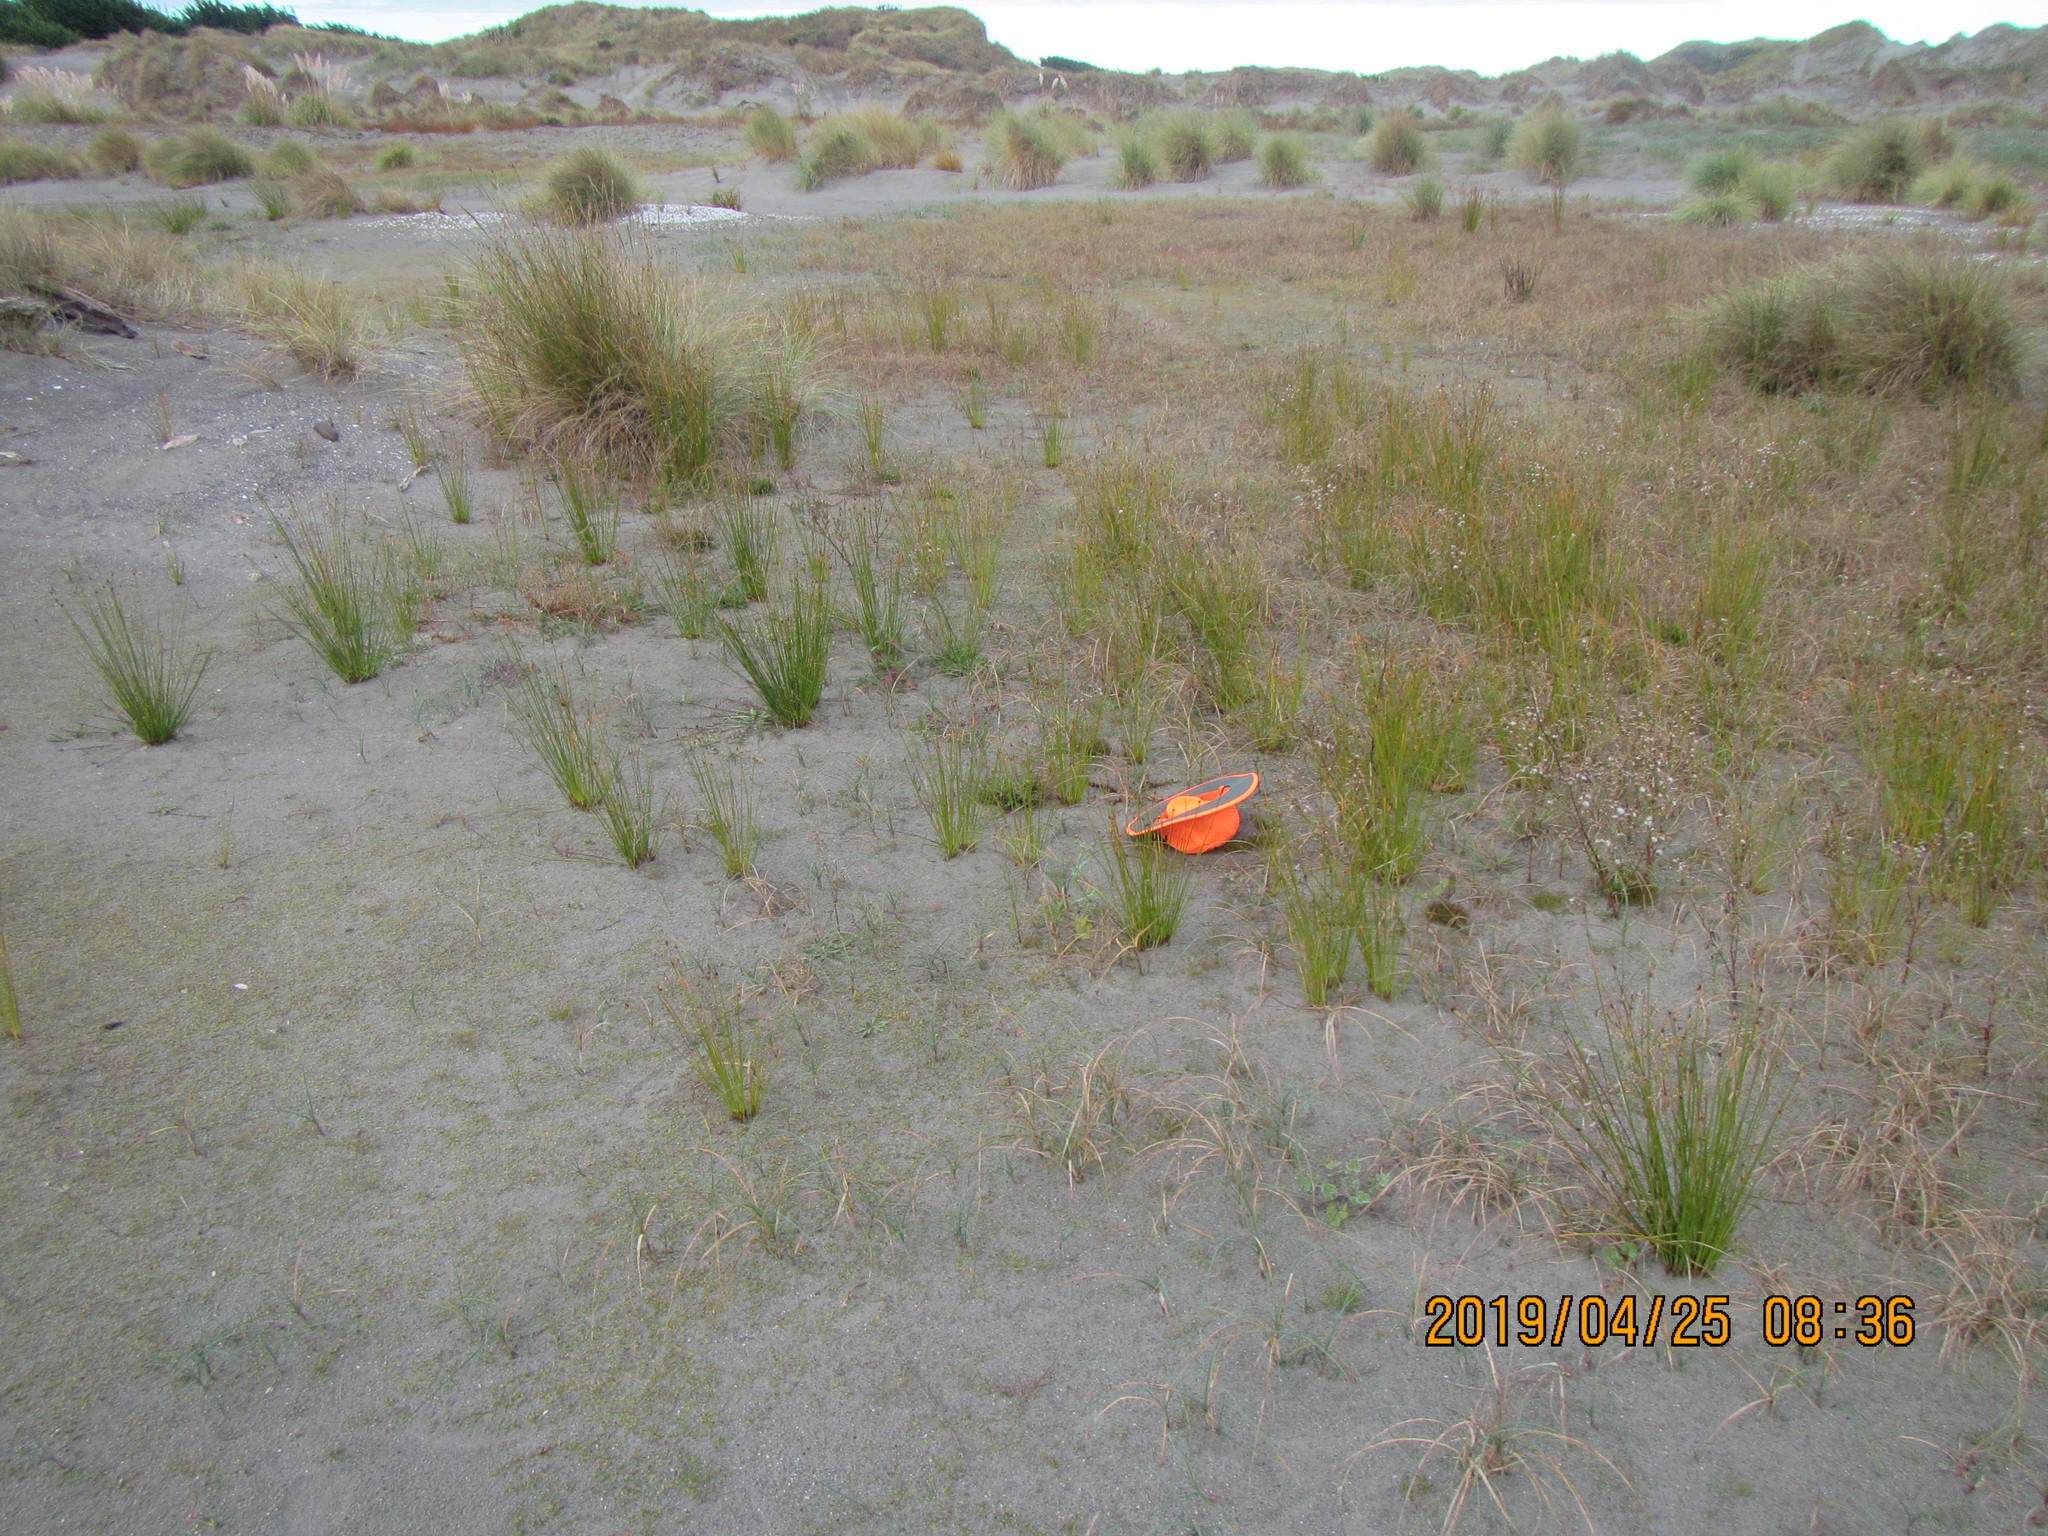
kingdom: Plantae
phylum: Tracheophyta
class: Magnoliopsida
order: Myrtales
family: Onagraceae
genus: Epilobium
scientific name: Epilobium billardiereanum
